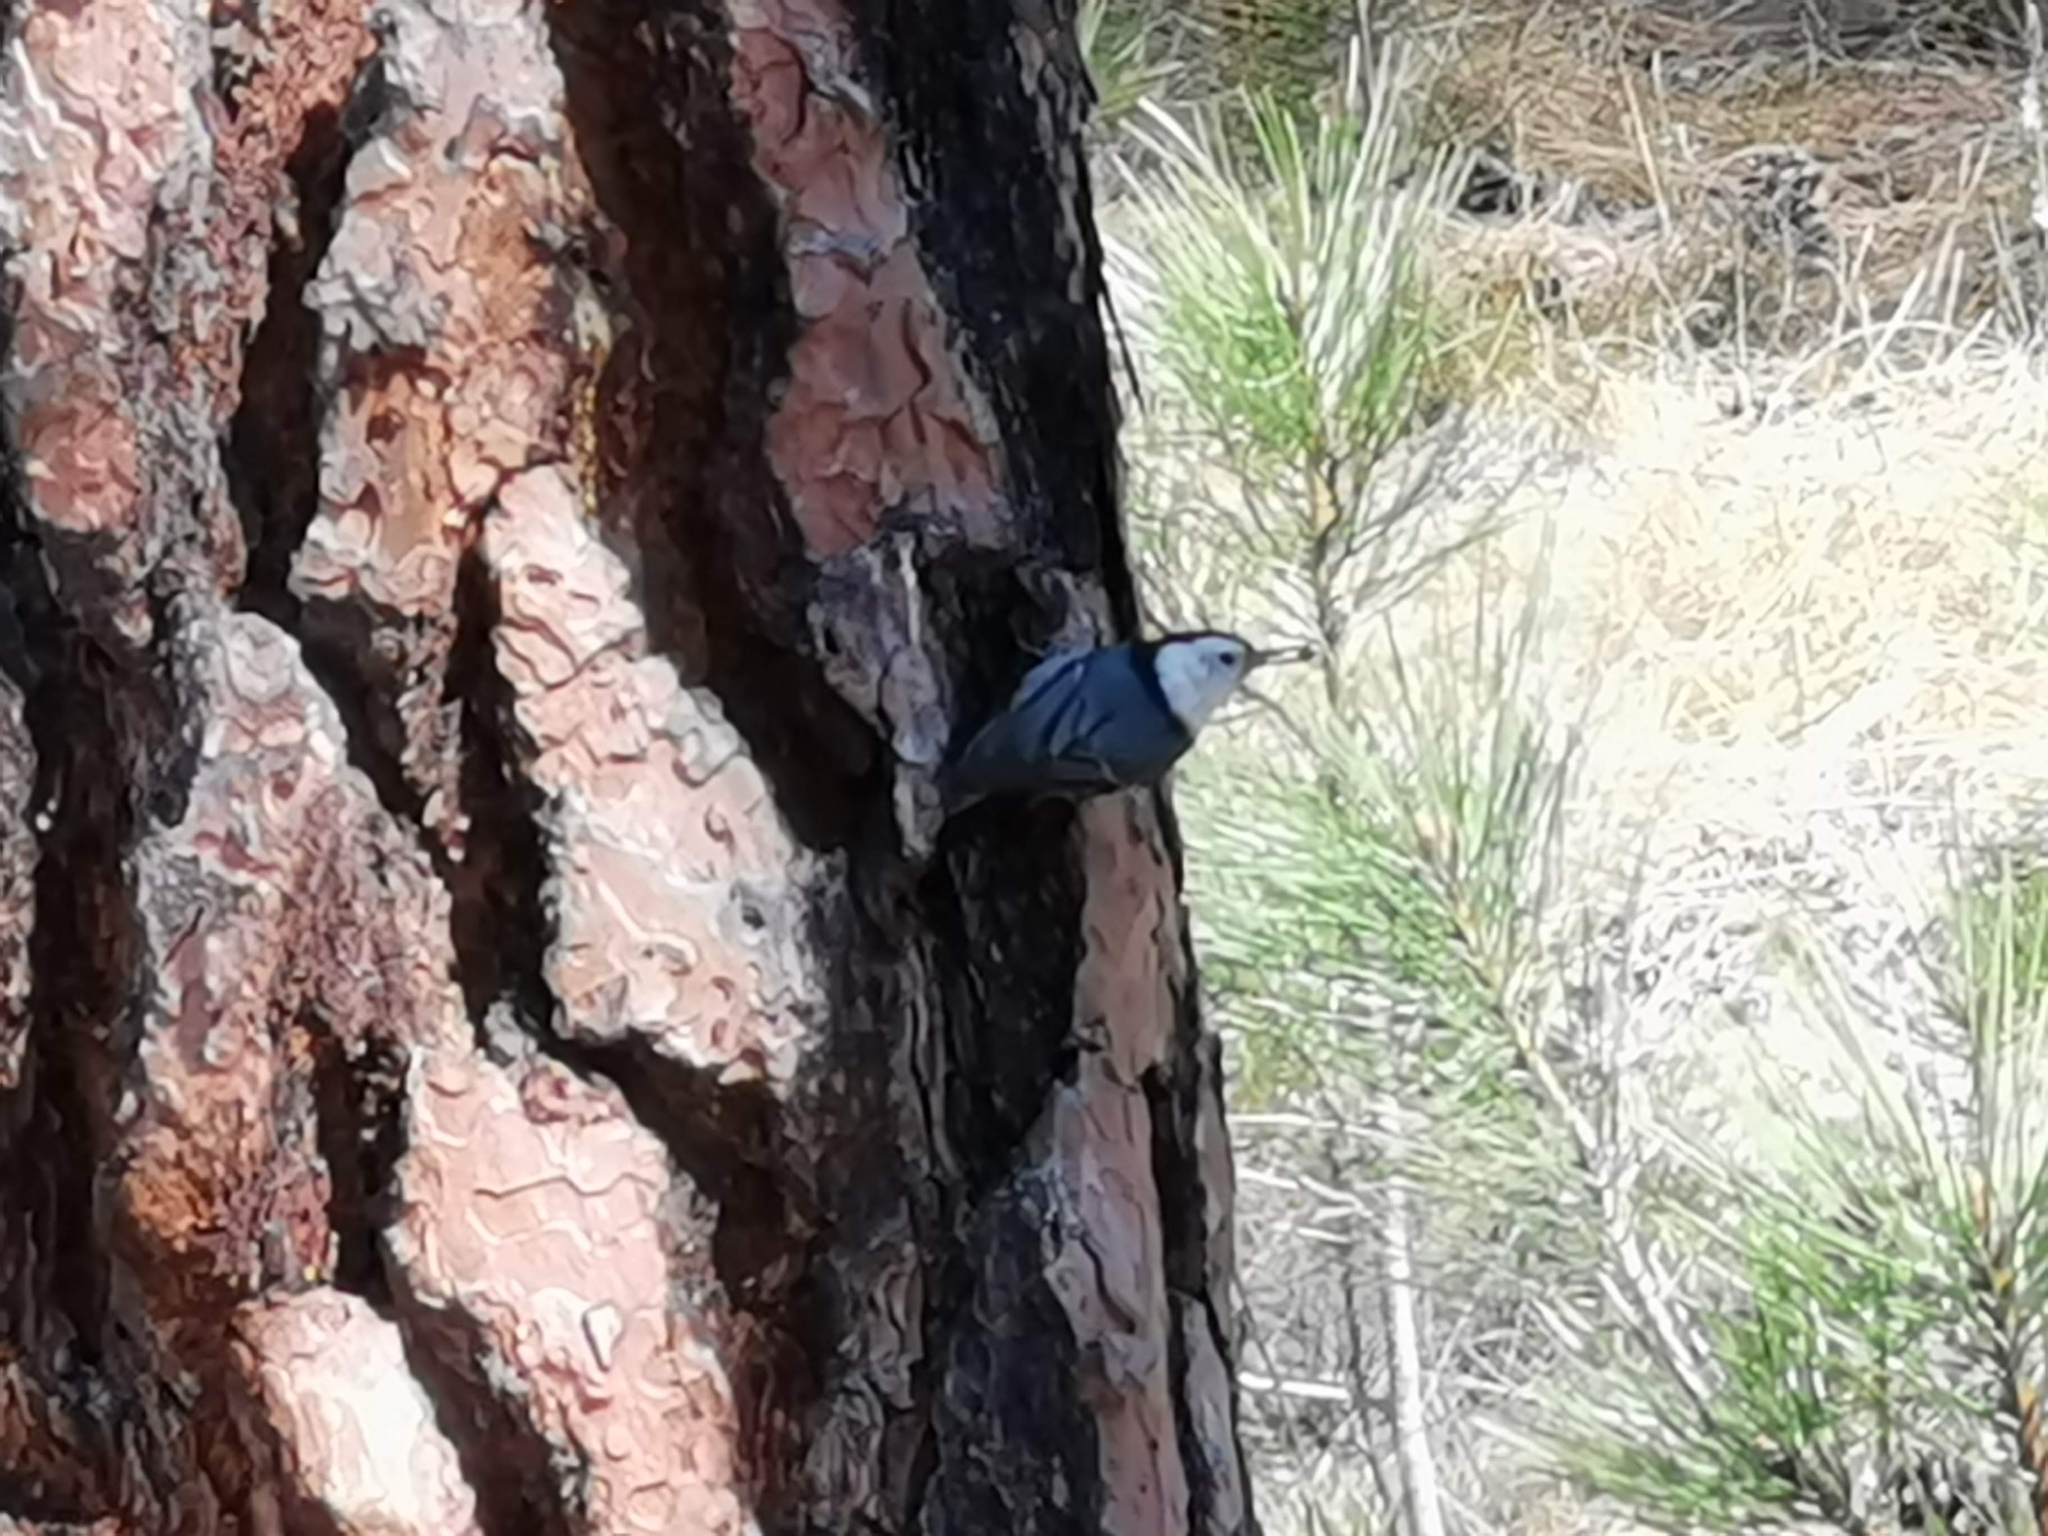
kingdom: Animalia
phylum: Chordata
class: Aves
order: Passeriformes
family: Sittidae
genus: Sitta
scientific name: Sitta carolinensis
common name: White-breasted nuthatch
